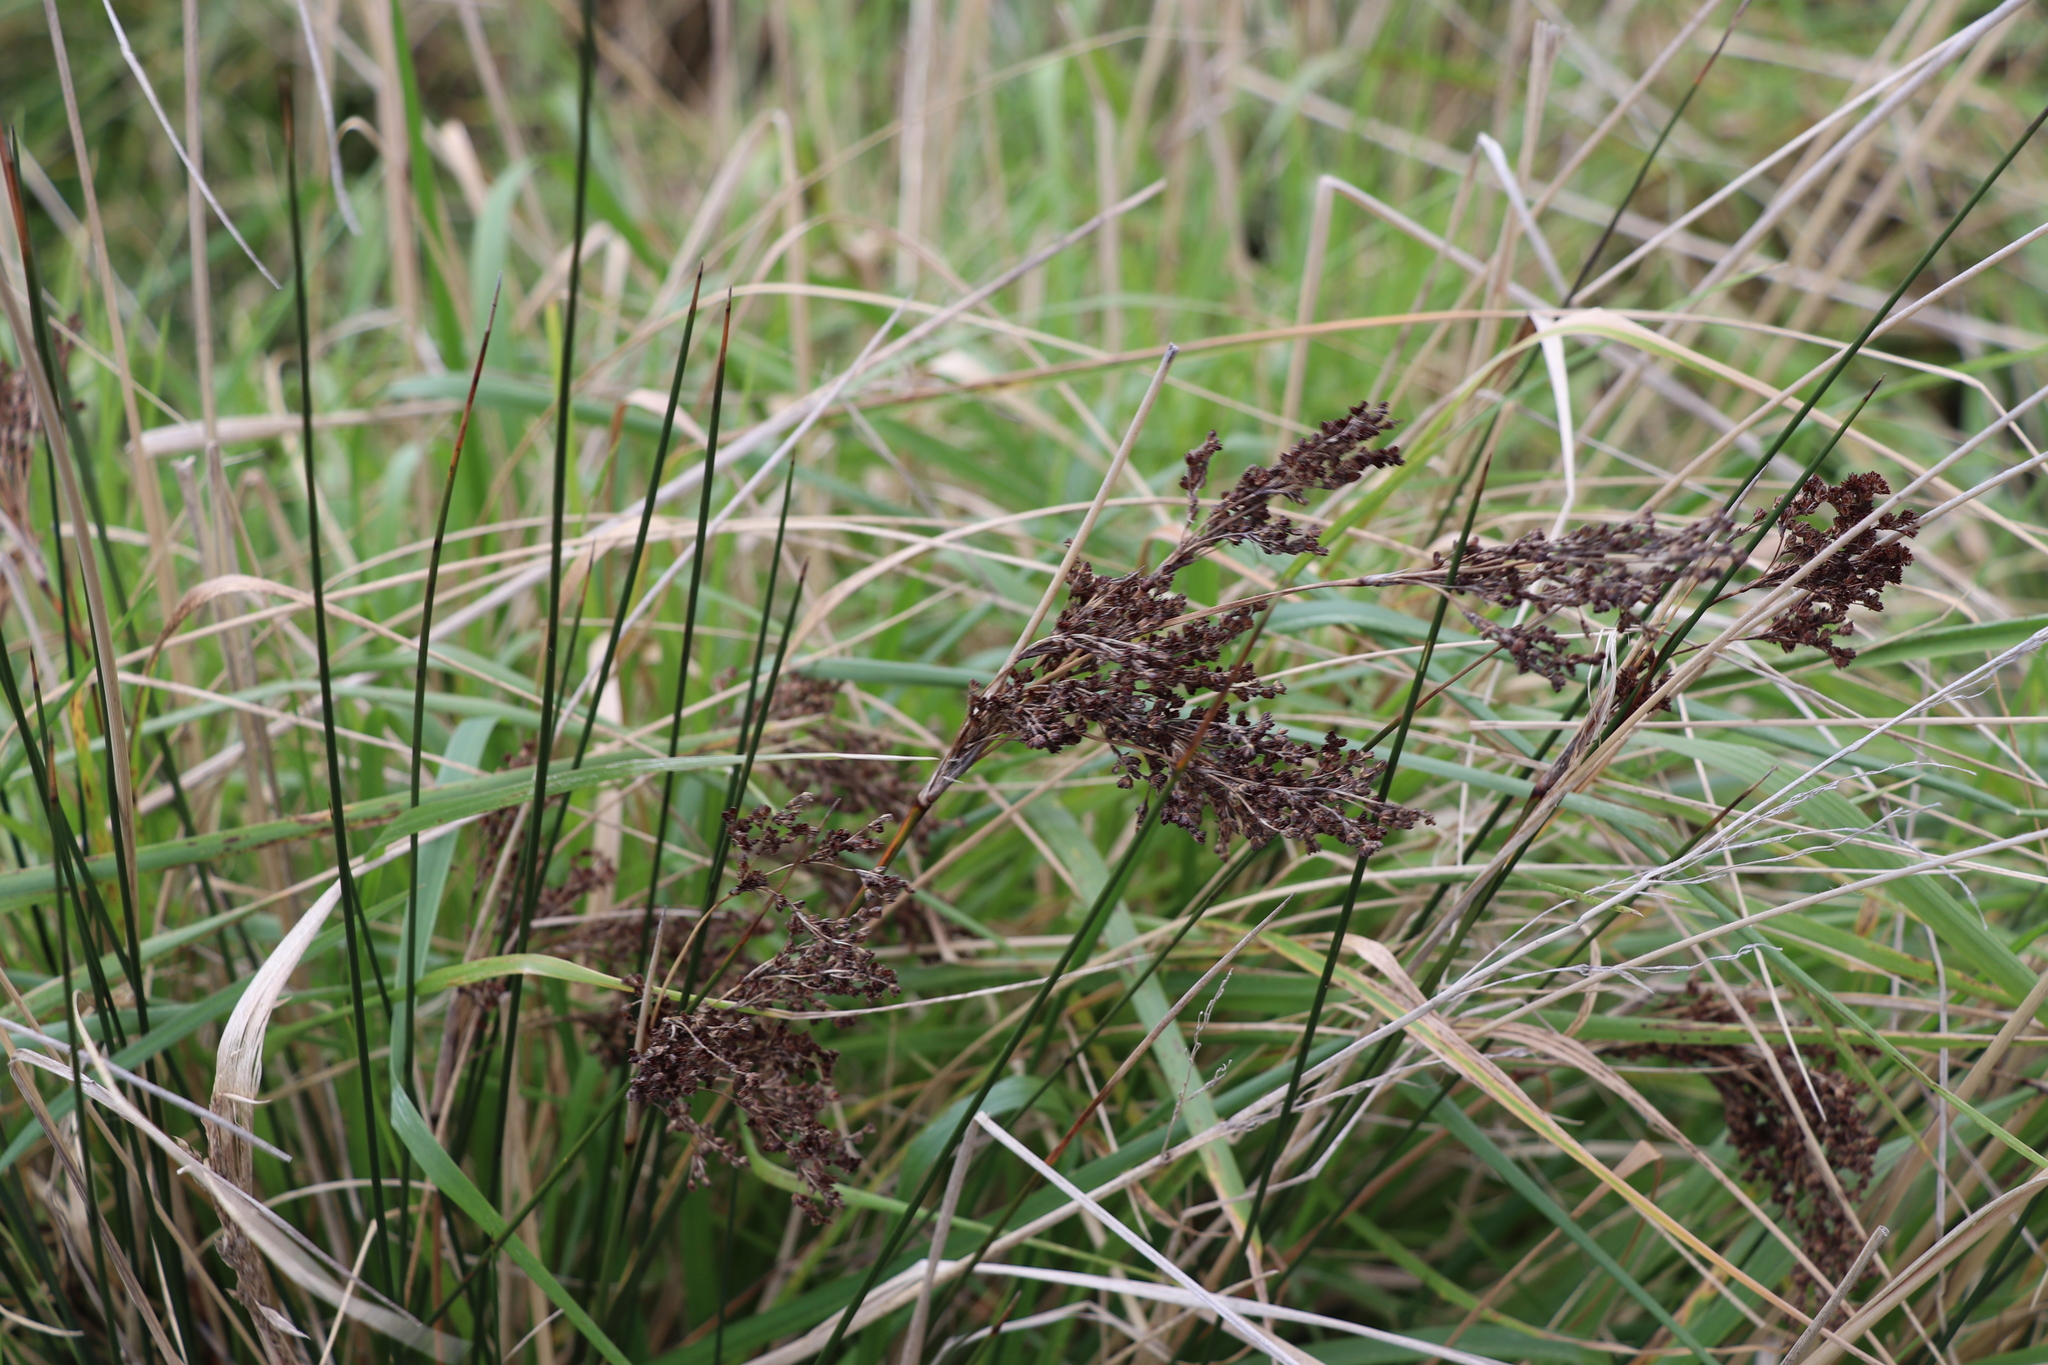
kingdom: Plantae
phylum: Tracheophyta
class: Liliopsida
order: Poales
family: Juncaceae
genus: Juncus
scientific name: Juncus kraussii
